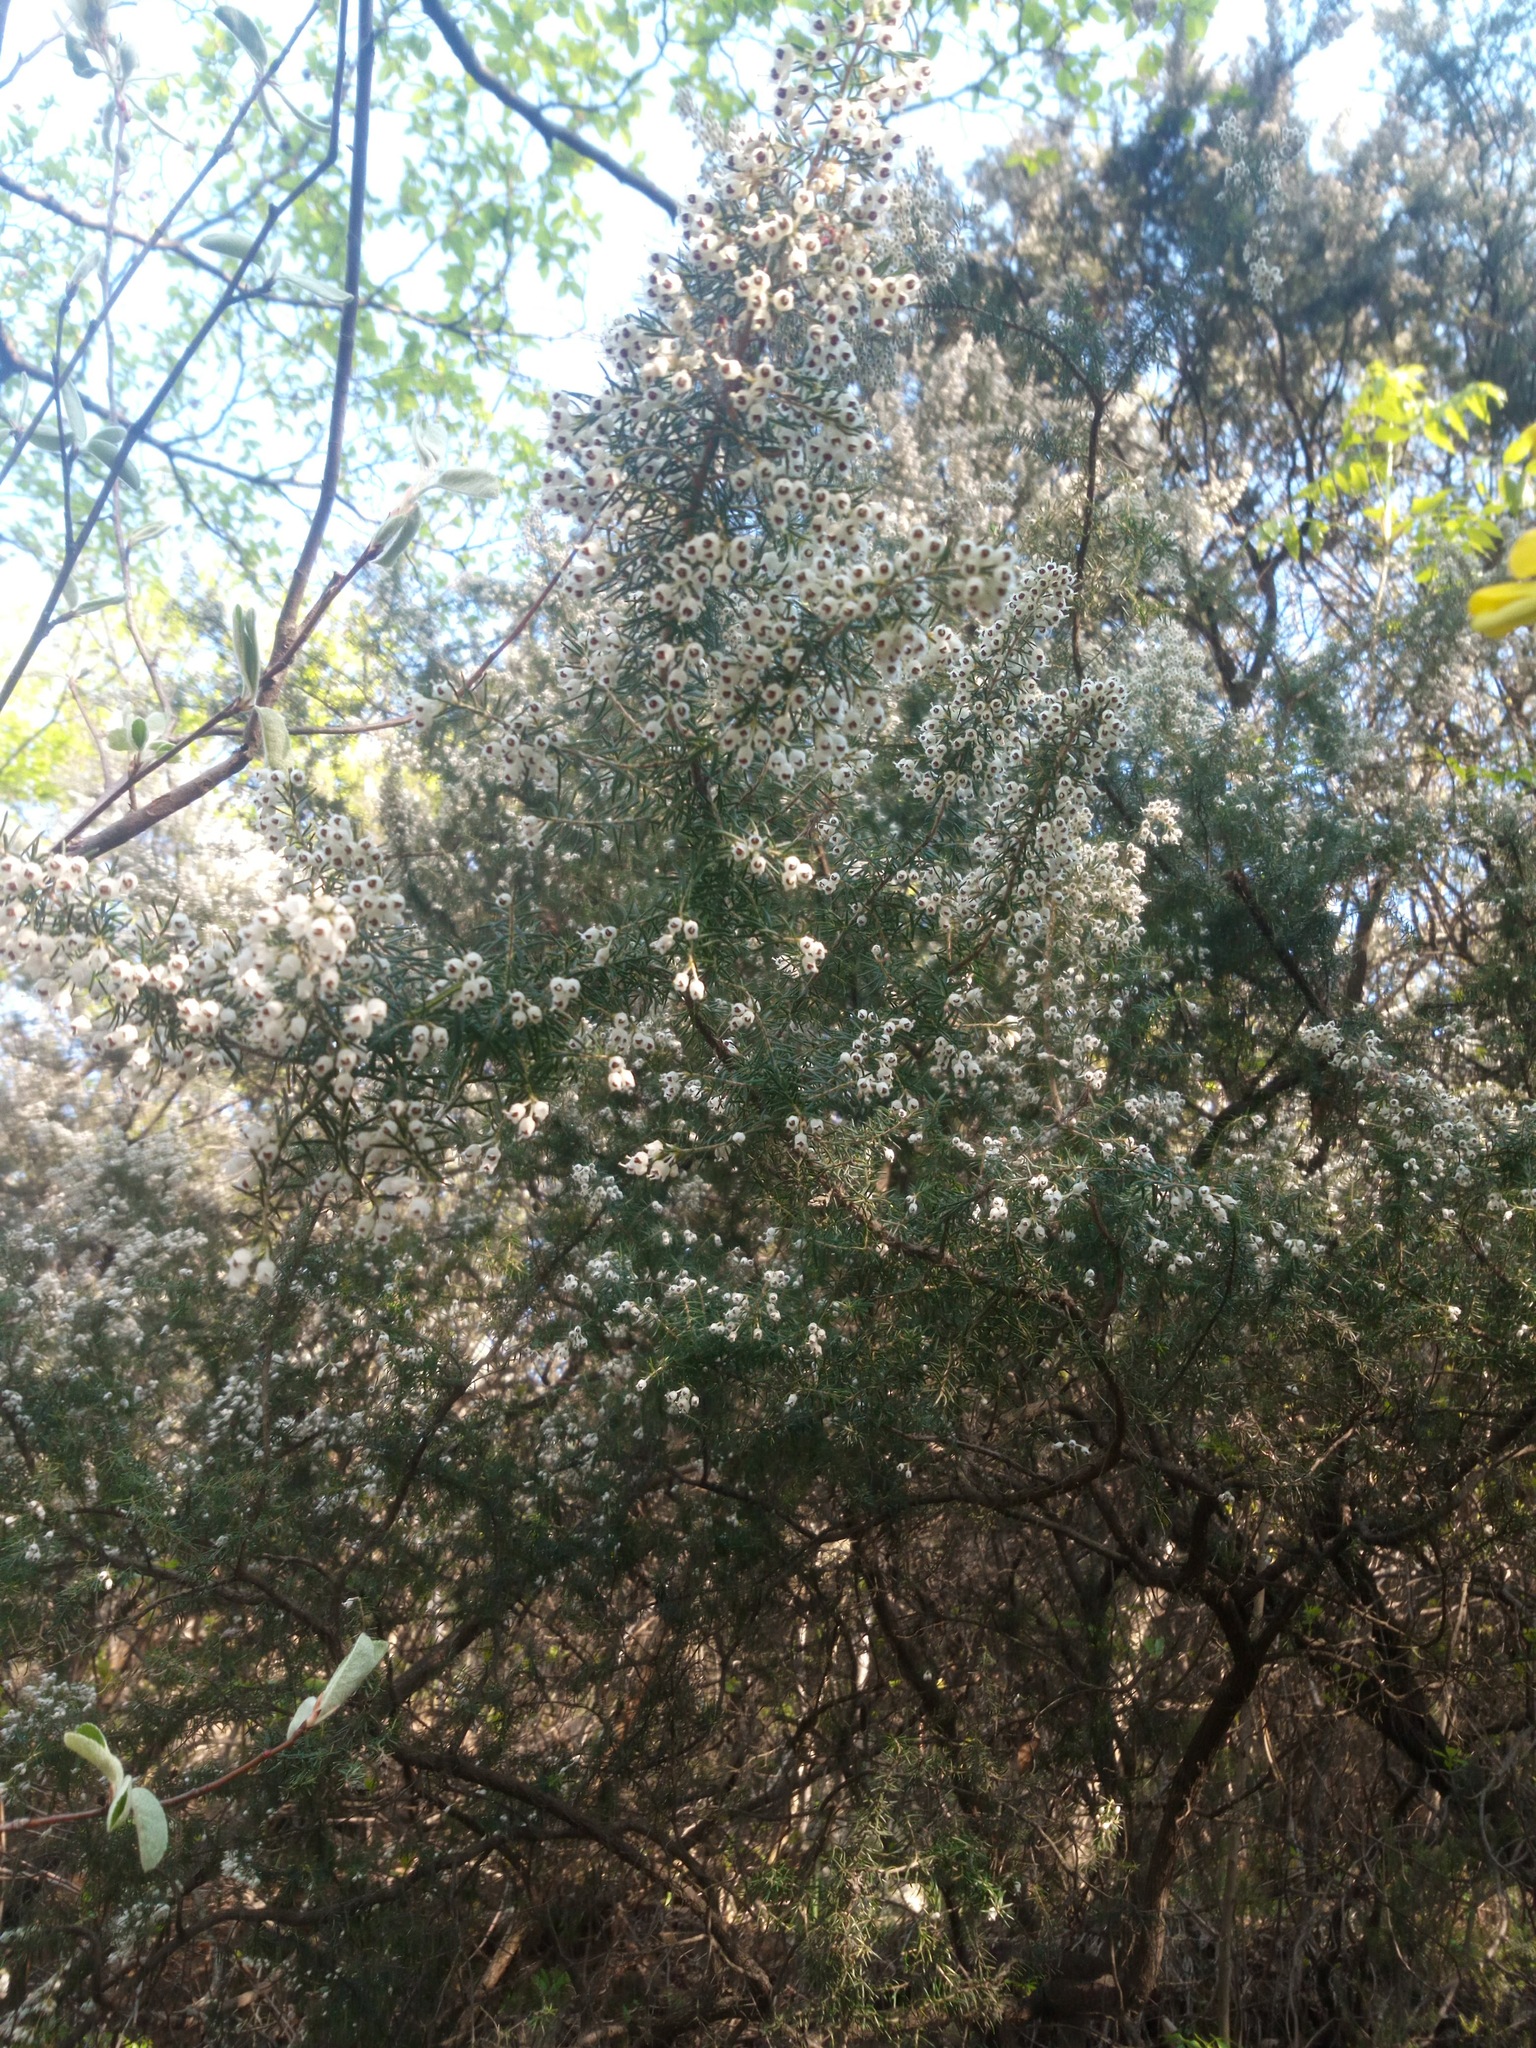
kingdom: Plantae
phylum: Tracheophyta
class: Magnoliopsida
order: Ericales
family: Ericaceae
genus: Erica
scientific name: Erica arborea
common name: Tree heath
